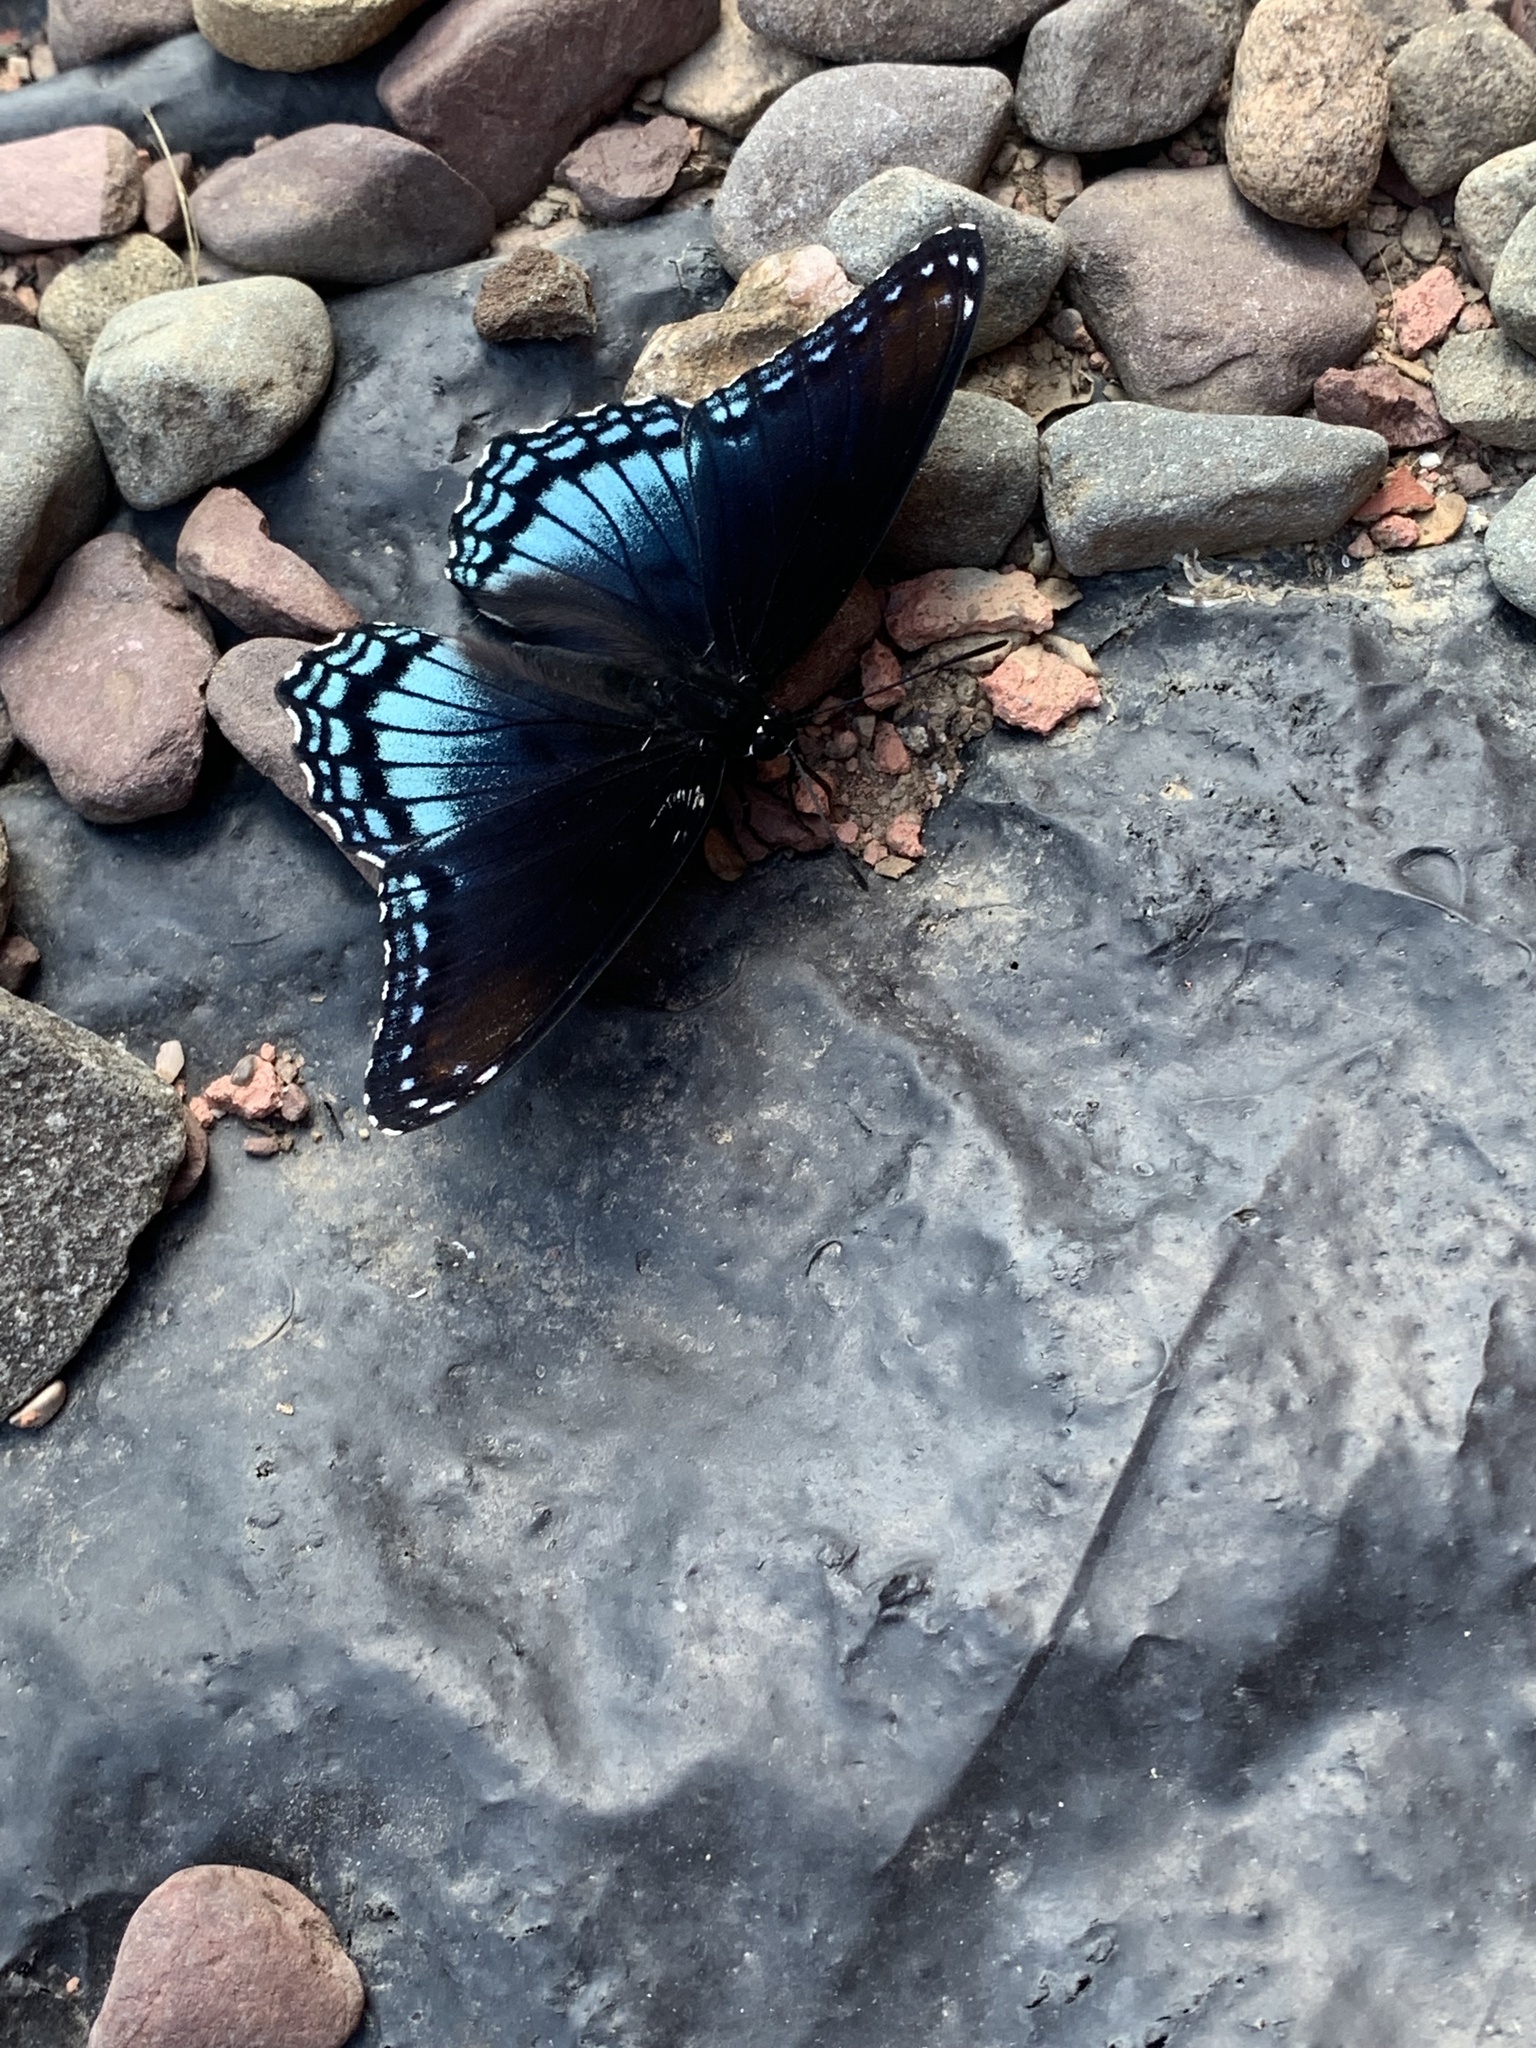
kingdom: Animalia
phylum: Arthropoda
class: Insecta
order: Lepidoptera
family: Nymphalidae
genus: Limenitis
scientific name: Limenitis astyanax
